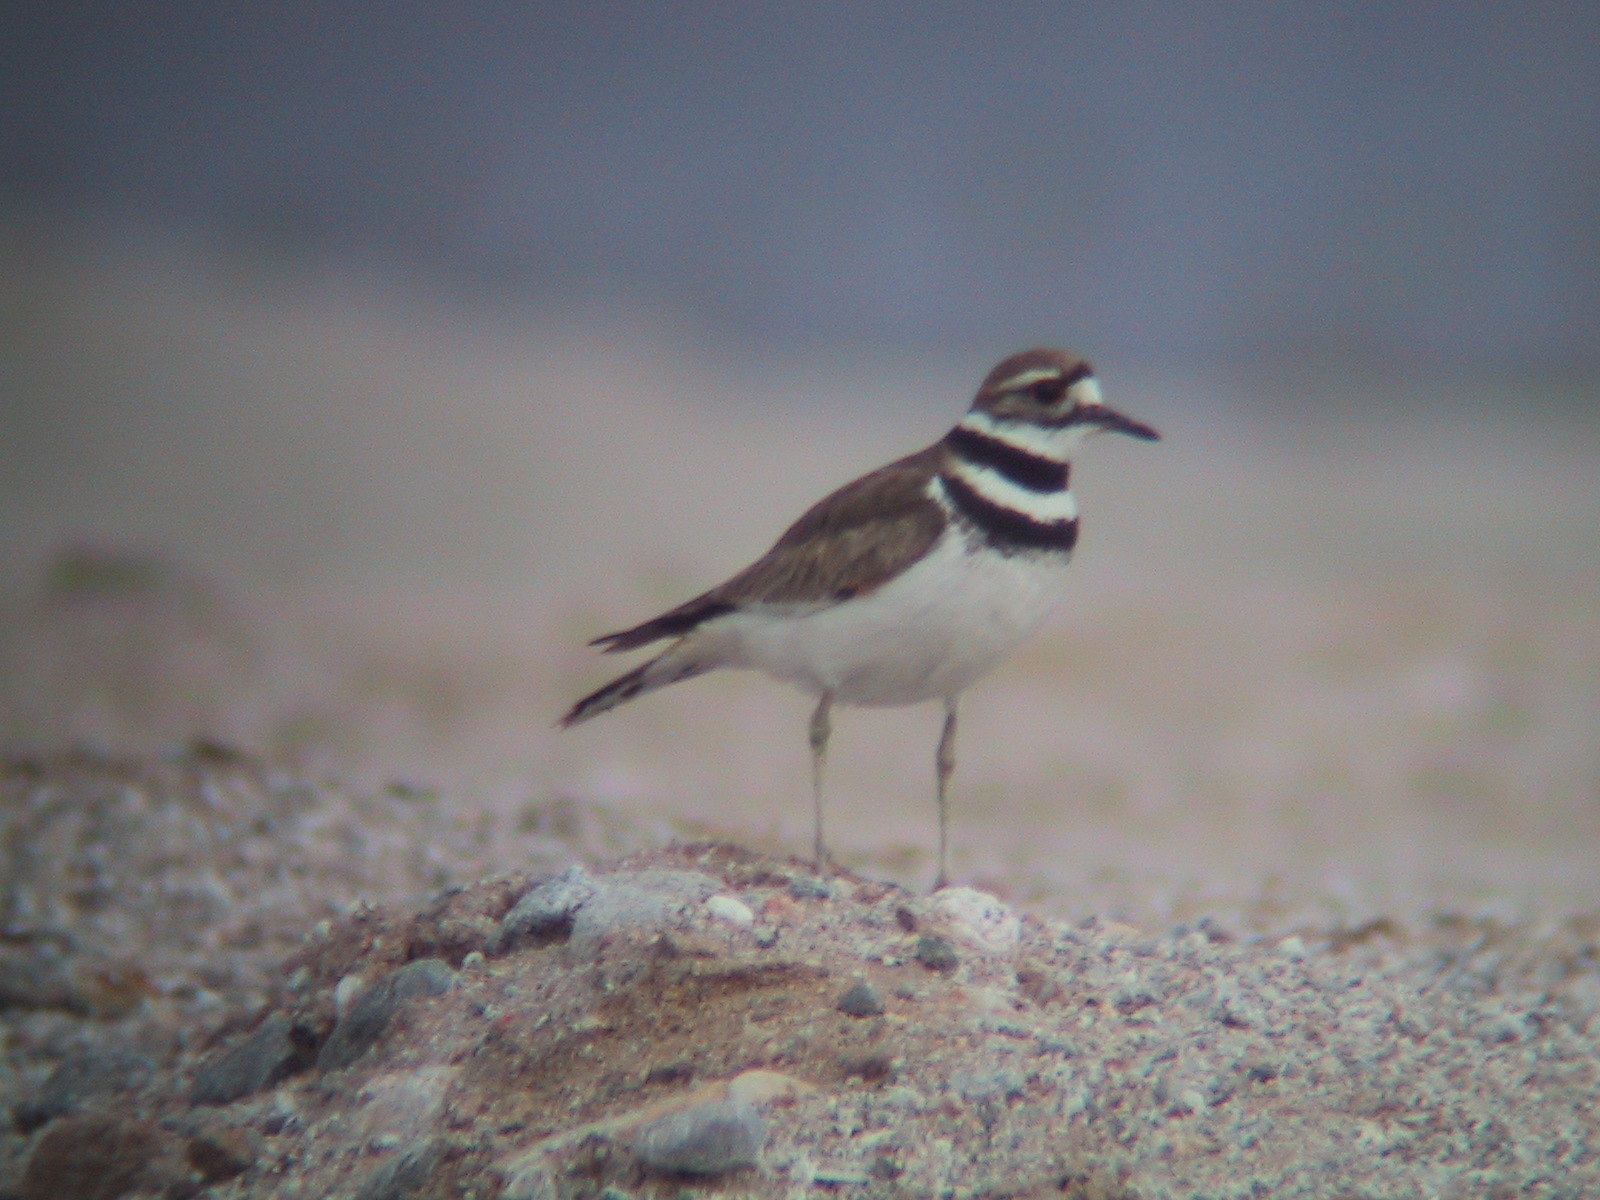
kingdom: Animalia
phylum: Chordata
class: Aves
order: Charadriiformes
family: Charadriidae
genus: Charadrius
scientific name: Charadrius vociferus
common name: Killdeer
